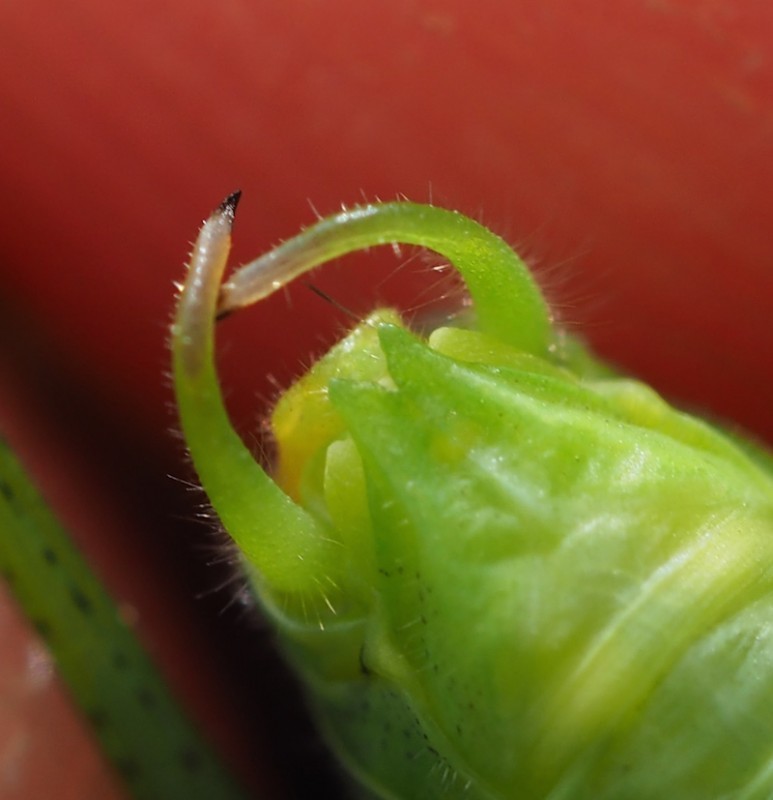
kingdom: Animalia
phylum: Arthropoda
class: Insecta
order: Orthoptera
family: Tettigoniidae
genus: Phaneroptera
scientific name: Phaneroptera nana
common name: Southern sickle bush-cricket
